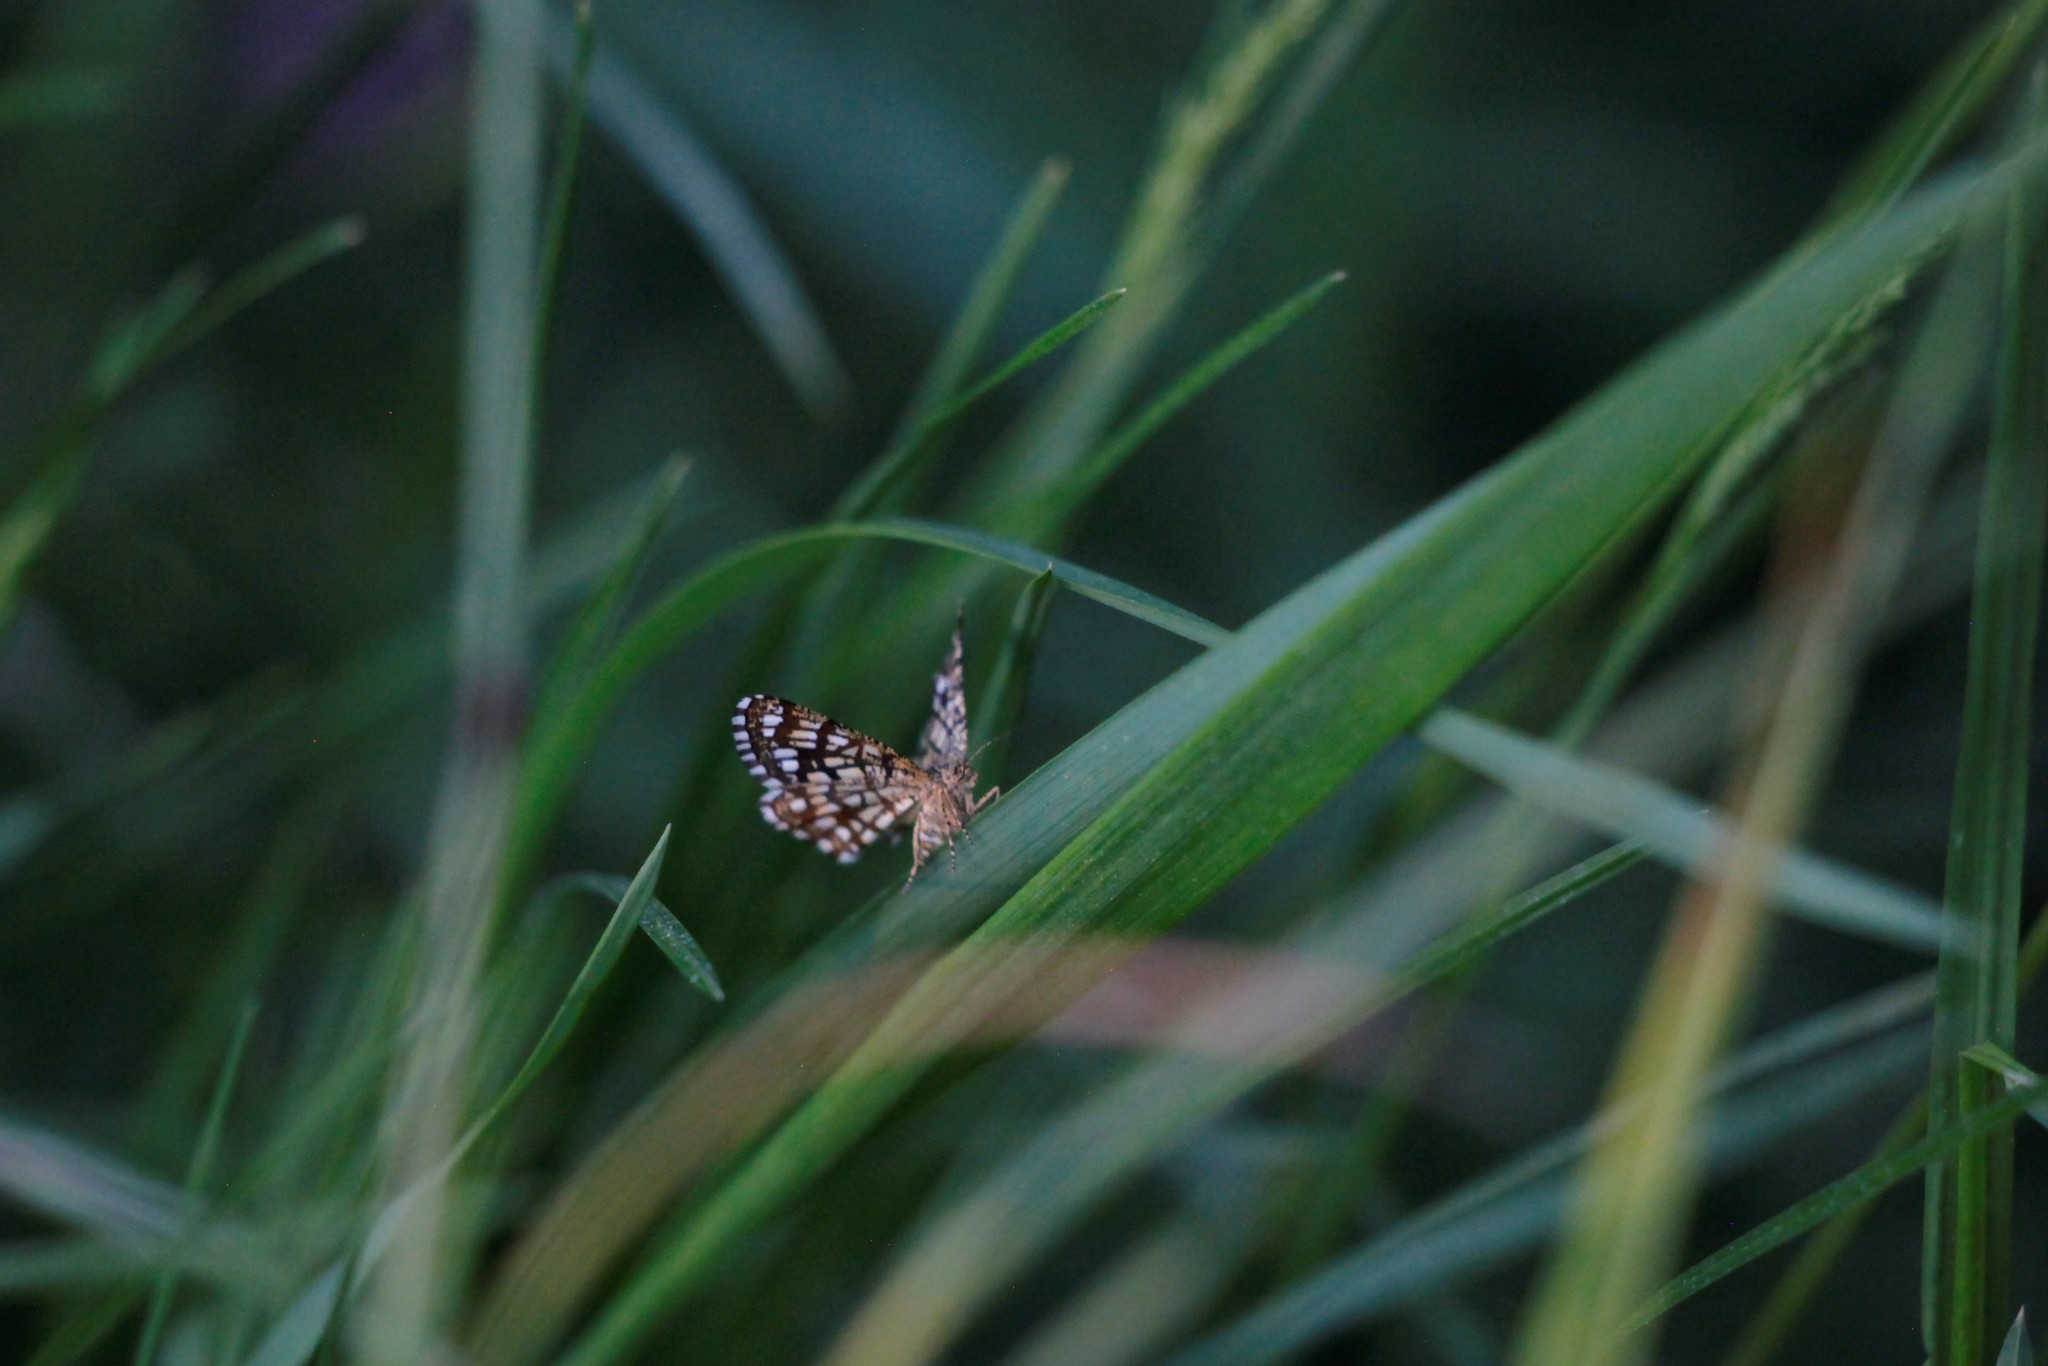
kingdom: Animalia
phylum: Arthropoda
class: Insecta
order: Lepidoptera
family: Geometridae
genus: Chiasmia
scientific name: Chiasmia clathrata
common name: Latticed heath
